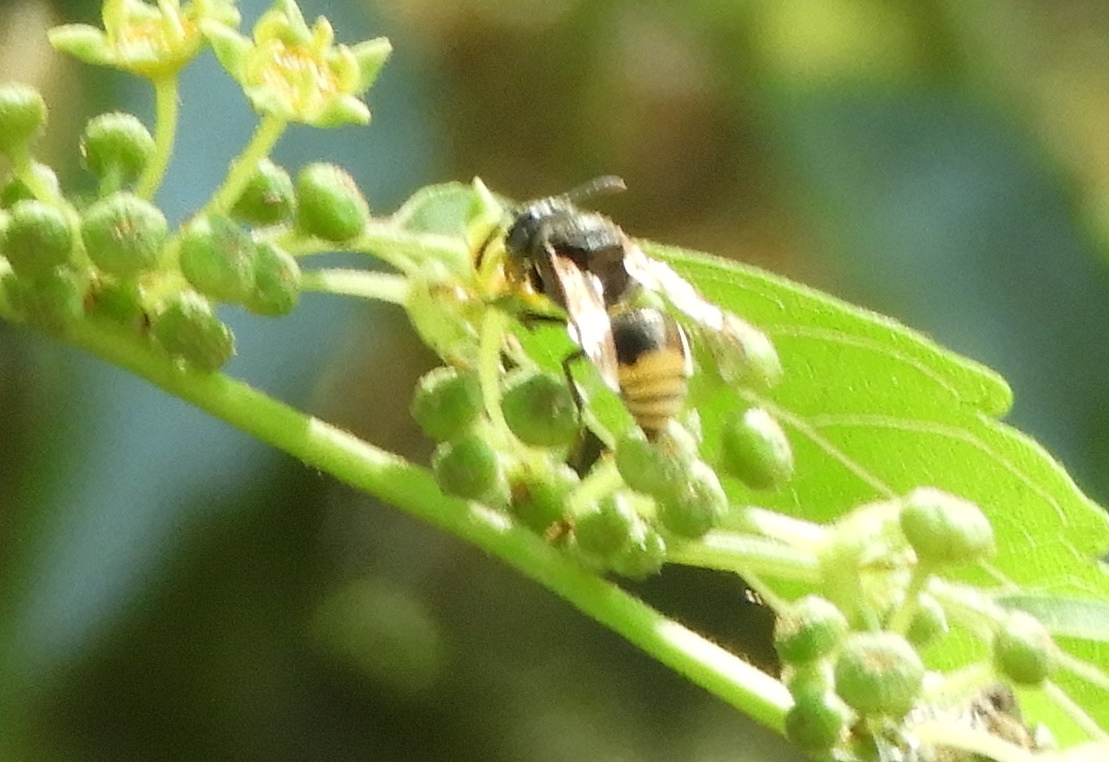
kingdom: Animalia
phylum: Arthropoda
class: Insecta
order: Hymenoptera
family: Vespidae
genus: Brachygastra
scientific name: Brachygastra azteca
